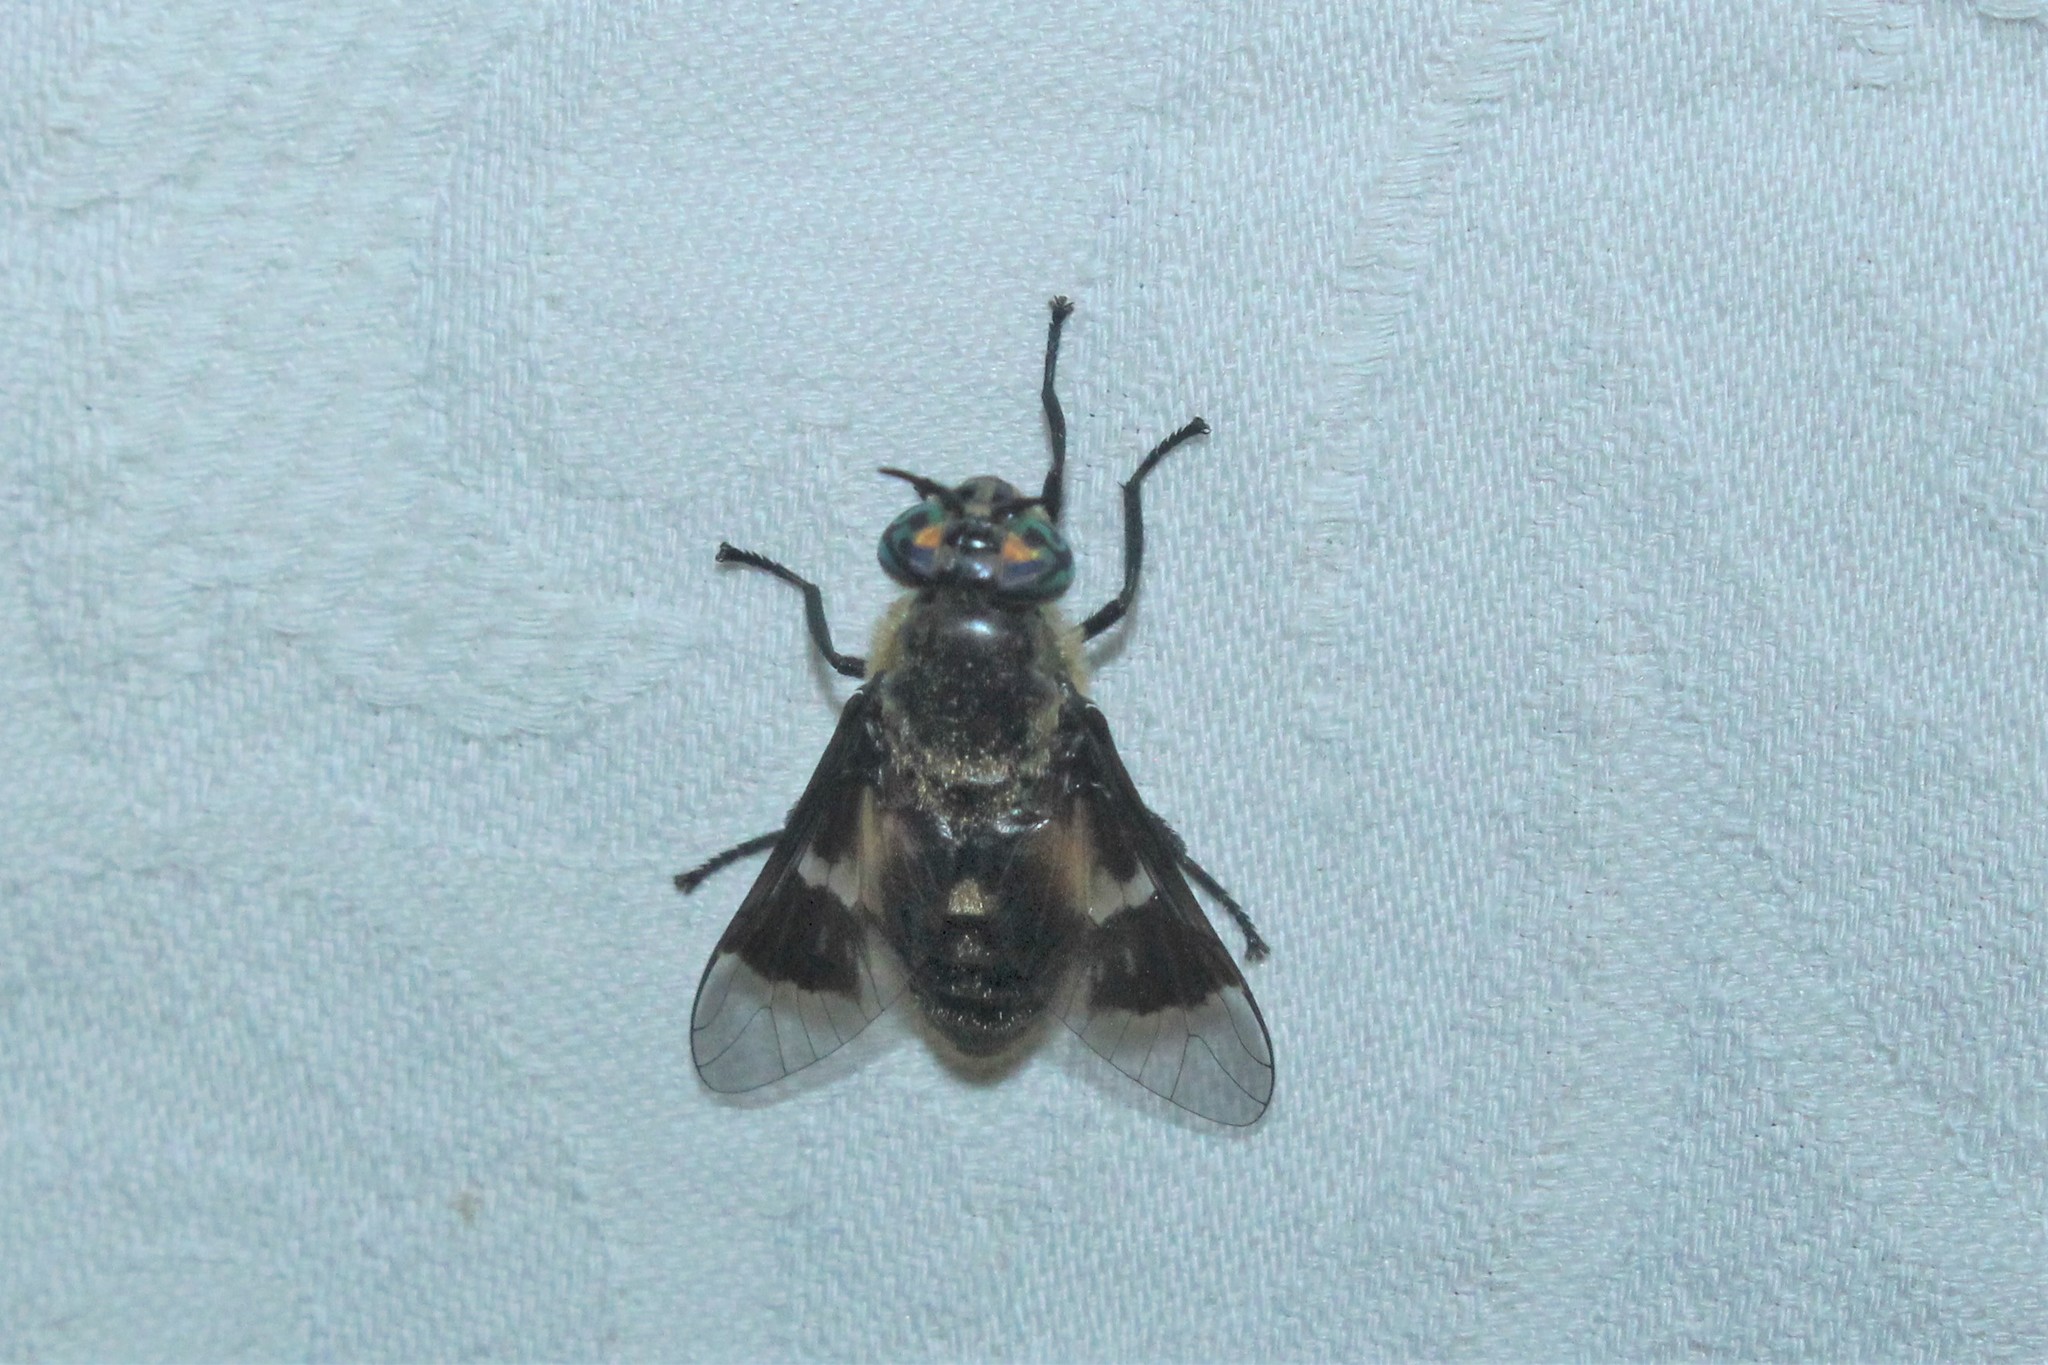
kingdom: Animalia
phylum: Arthropoda
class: Insecta
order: Diptera
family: Tabanidae
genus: Chrysops
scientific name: Chrysops excitans
